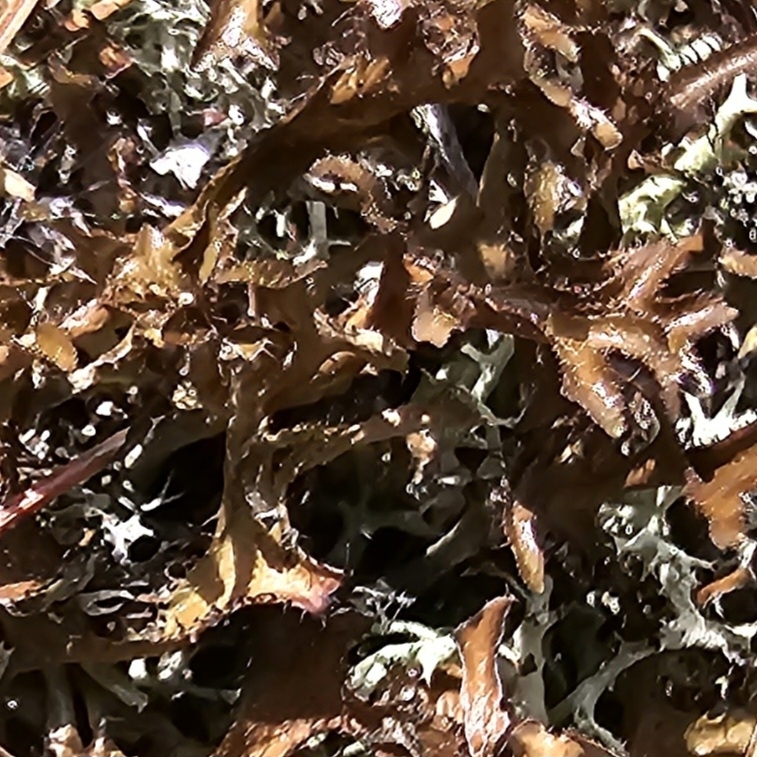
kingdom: Fungi
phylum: Ascomycota
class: Lecanoromycetes
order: Lecanorales
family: Parmeliaceae
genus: Cetraria
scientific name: Cetraria arenaria
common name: Sand-loving iceland lichen
